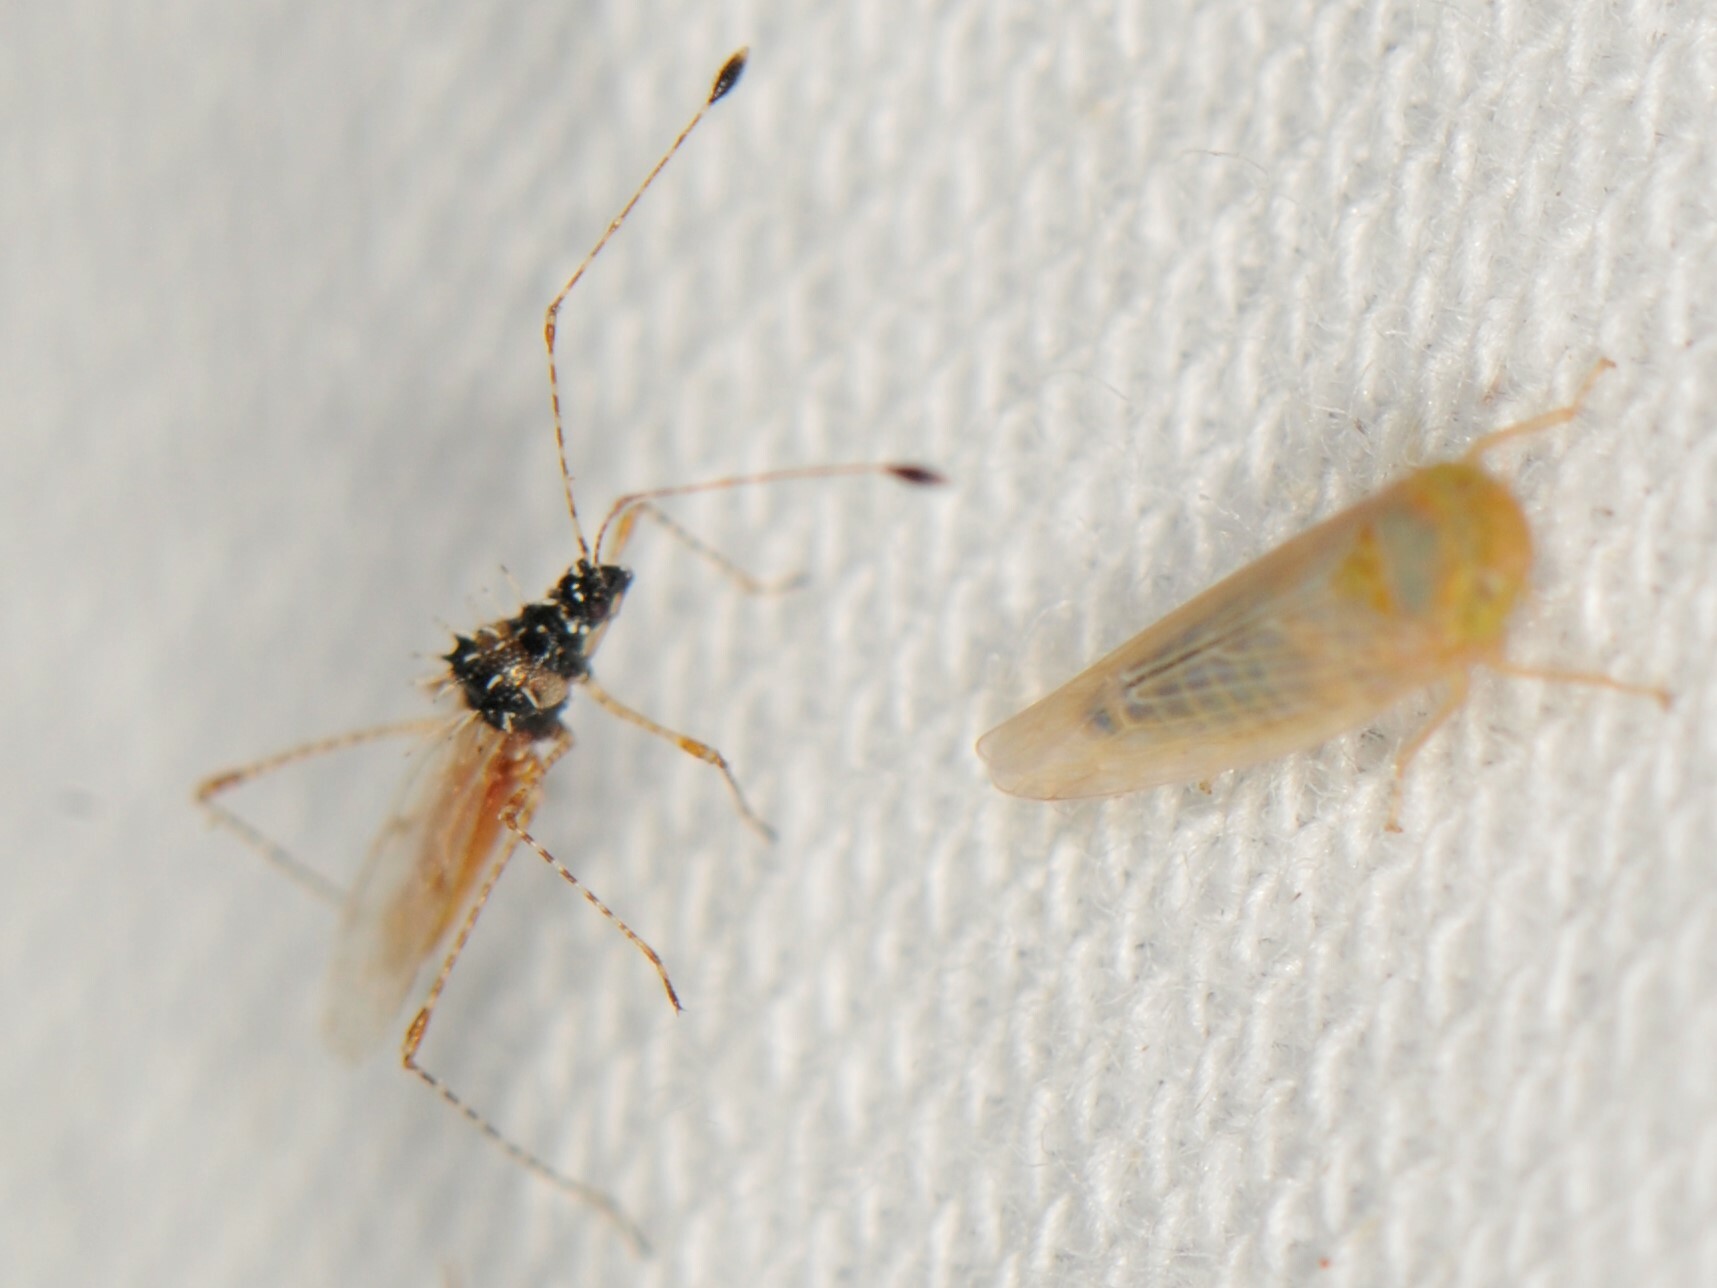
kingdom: Animalia
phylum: Arthropoda
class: Insecta
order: Hemiptera
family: Berytidae
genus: Pronotacantha
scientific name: Pronotacantha annulata
